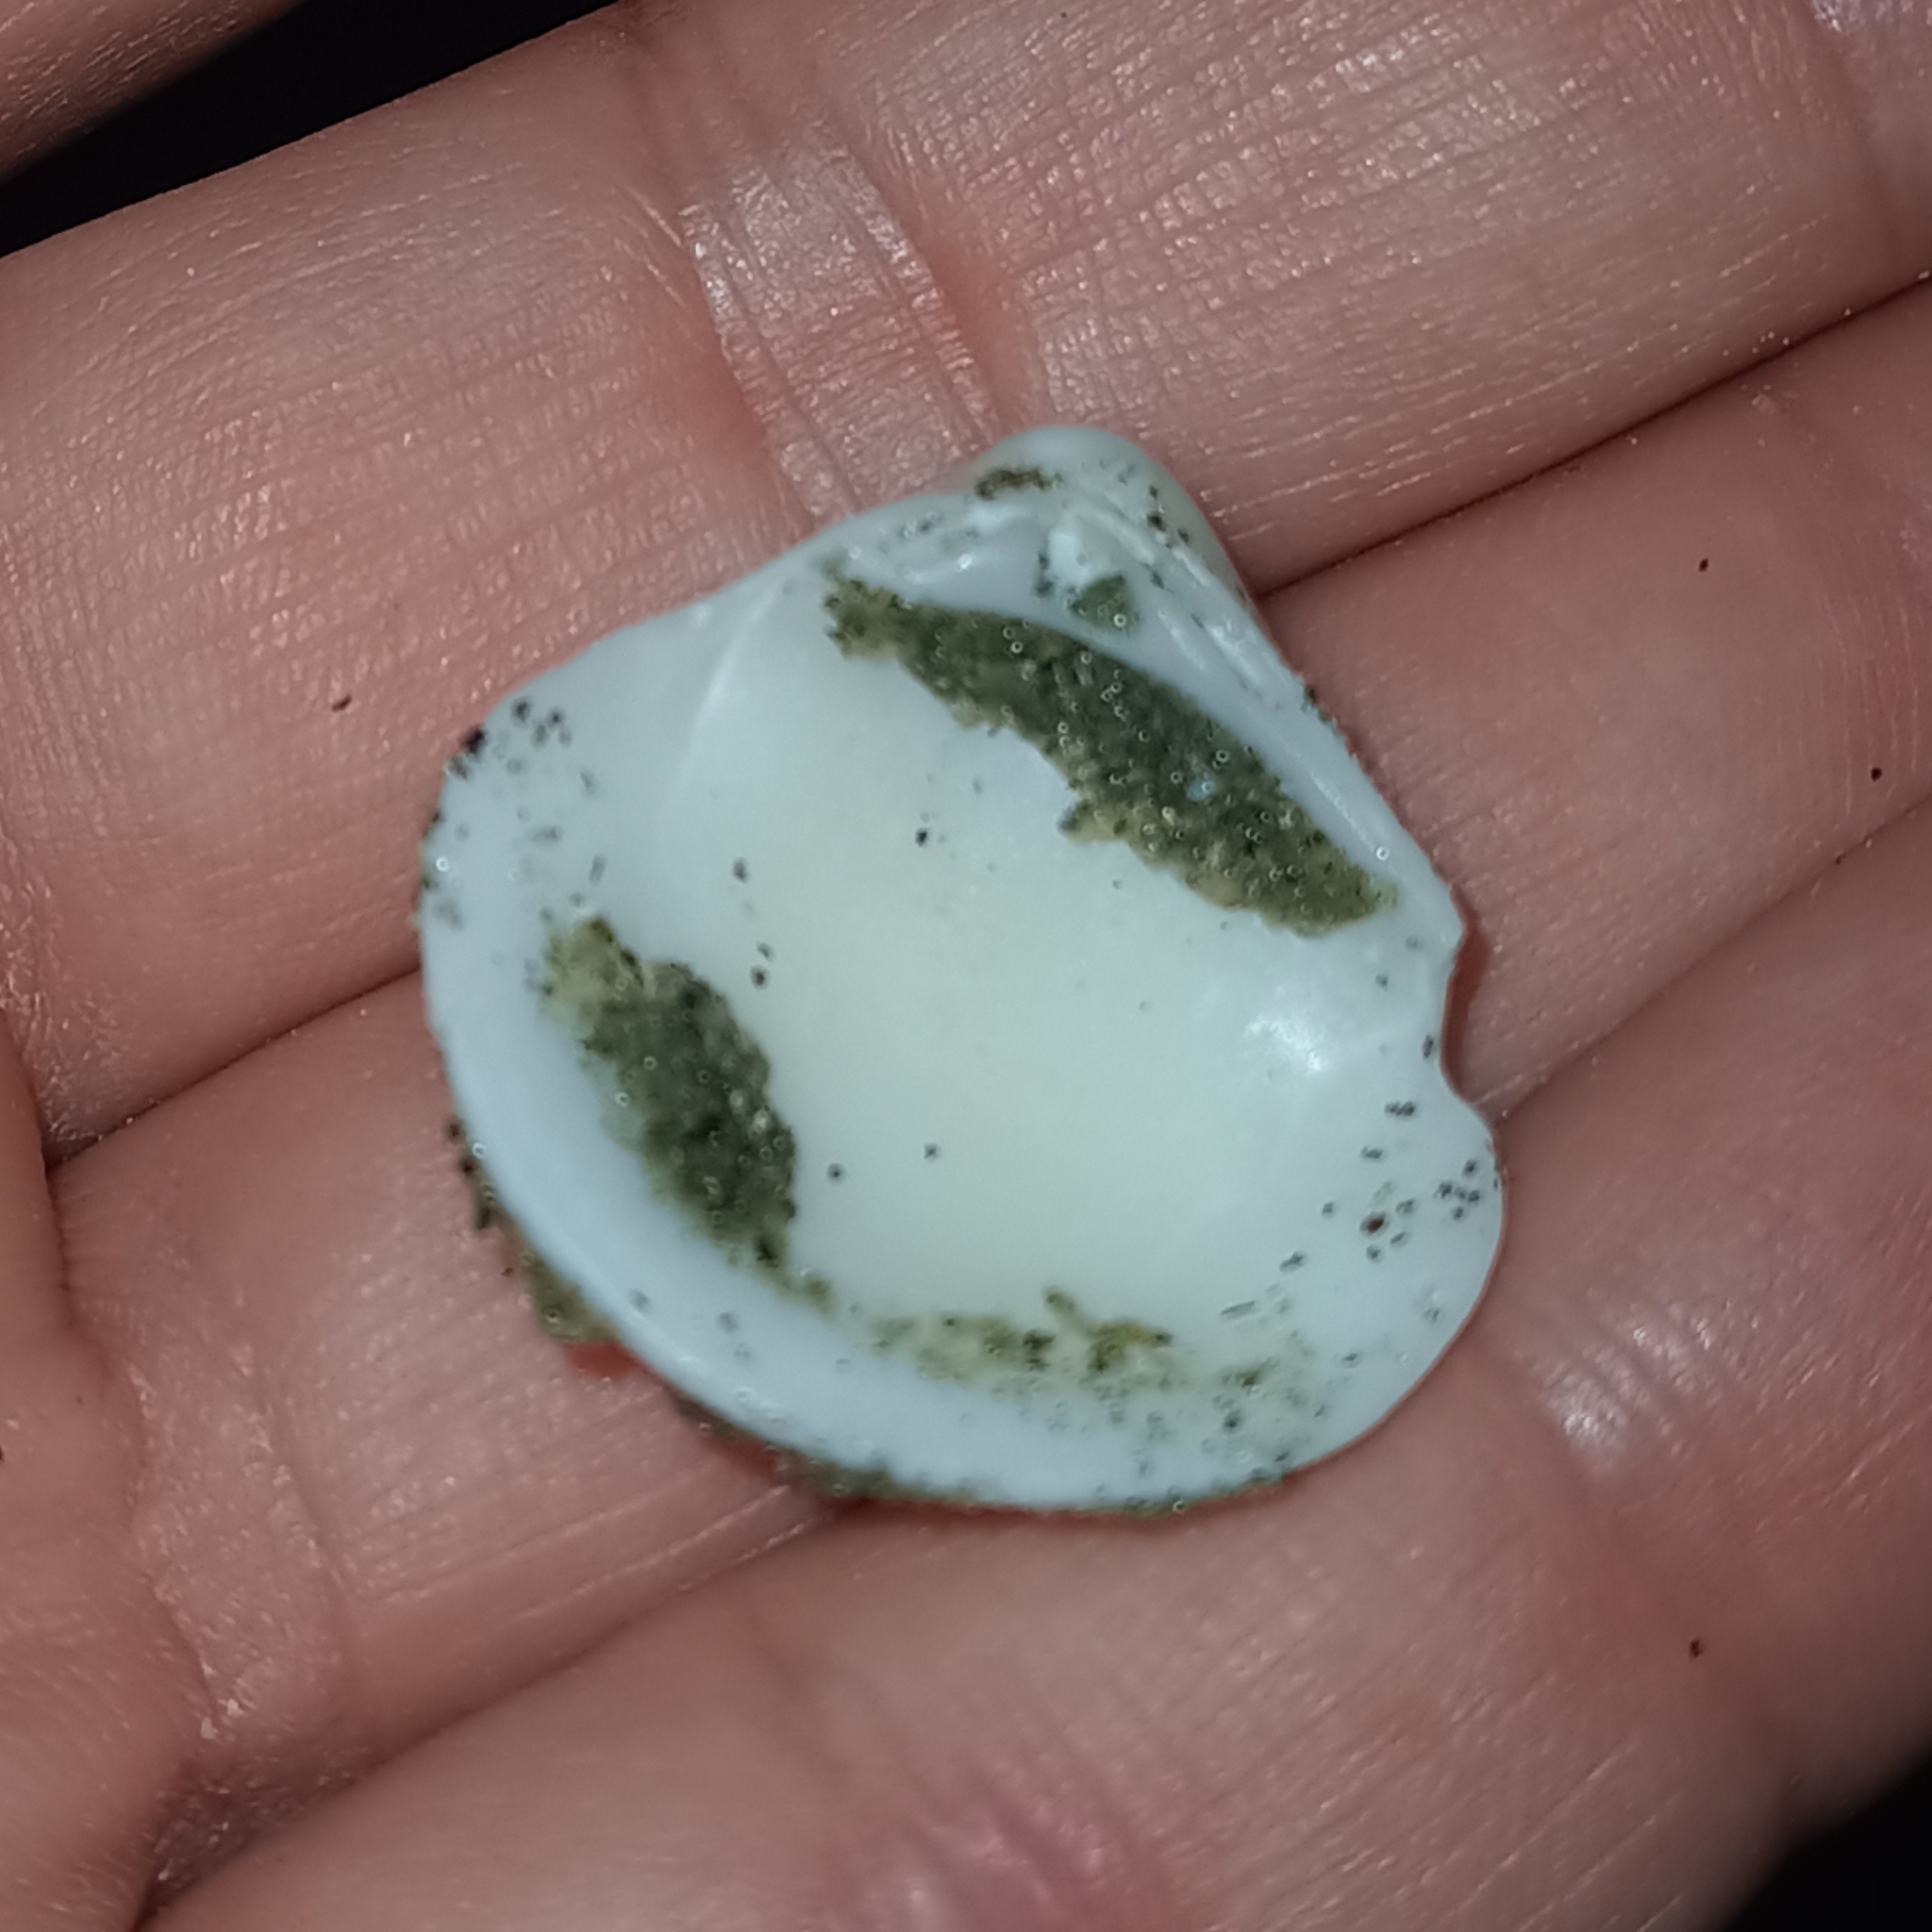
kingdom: Animalia
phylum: Mollusca
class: Bivalvia
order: Venerida
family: Veneridae
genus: Anomalocardia
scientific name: Anomalocardia flexuosa
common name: Carib pointed venus
